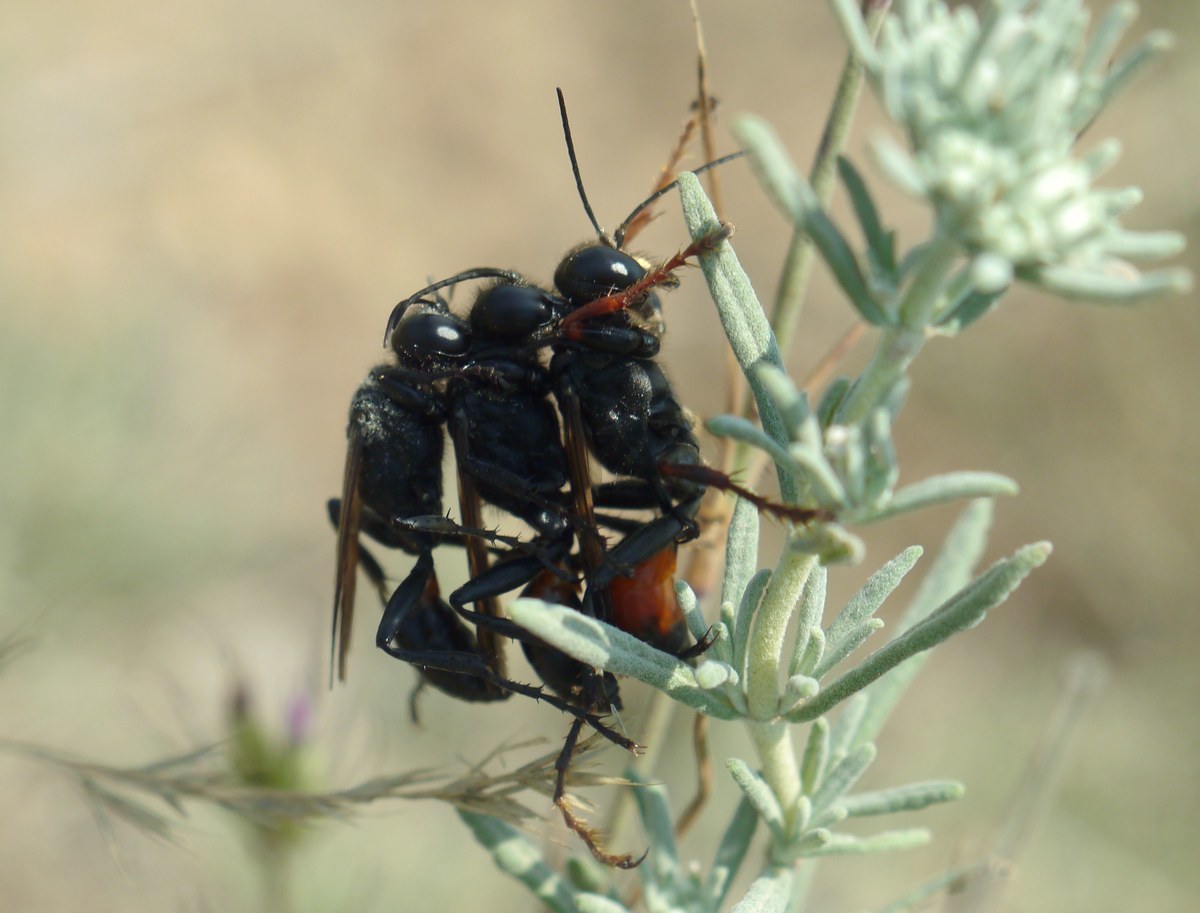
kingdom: Animalia
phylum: Arthropoda
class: Insecta
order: Hymenoptera
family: Sphecidae
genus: Palmodes
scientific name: Palmodes strigulosus
